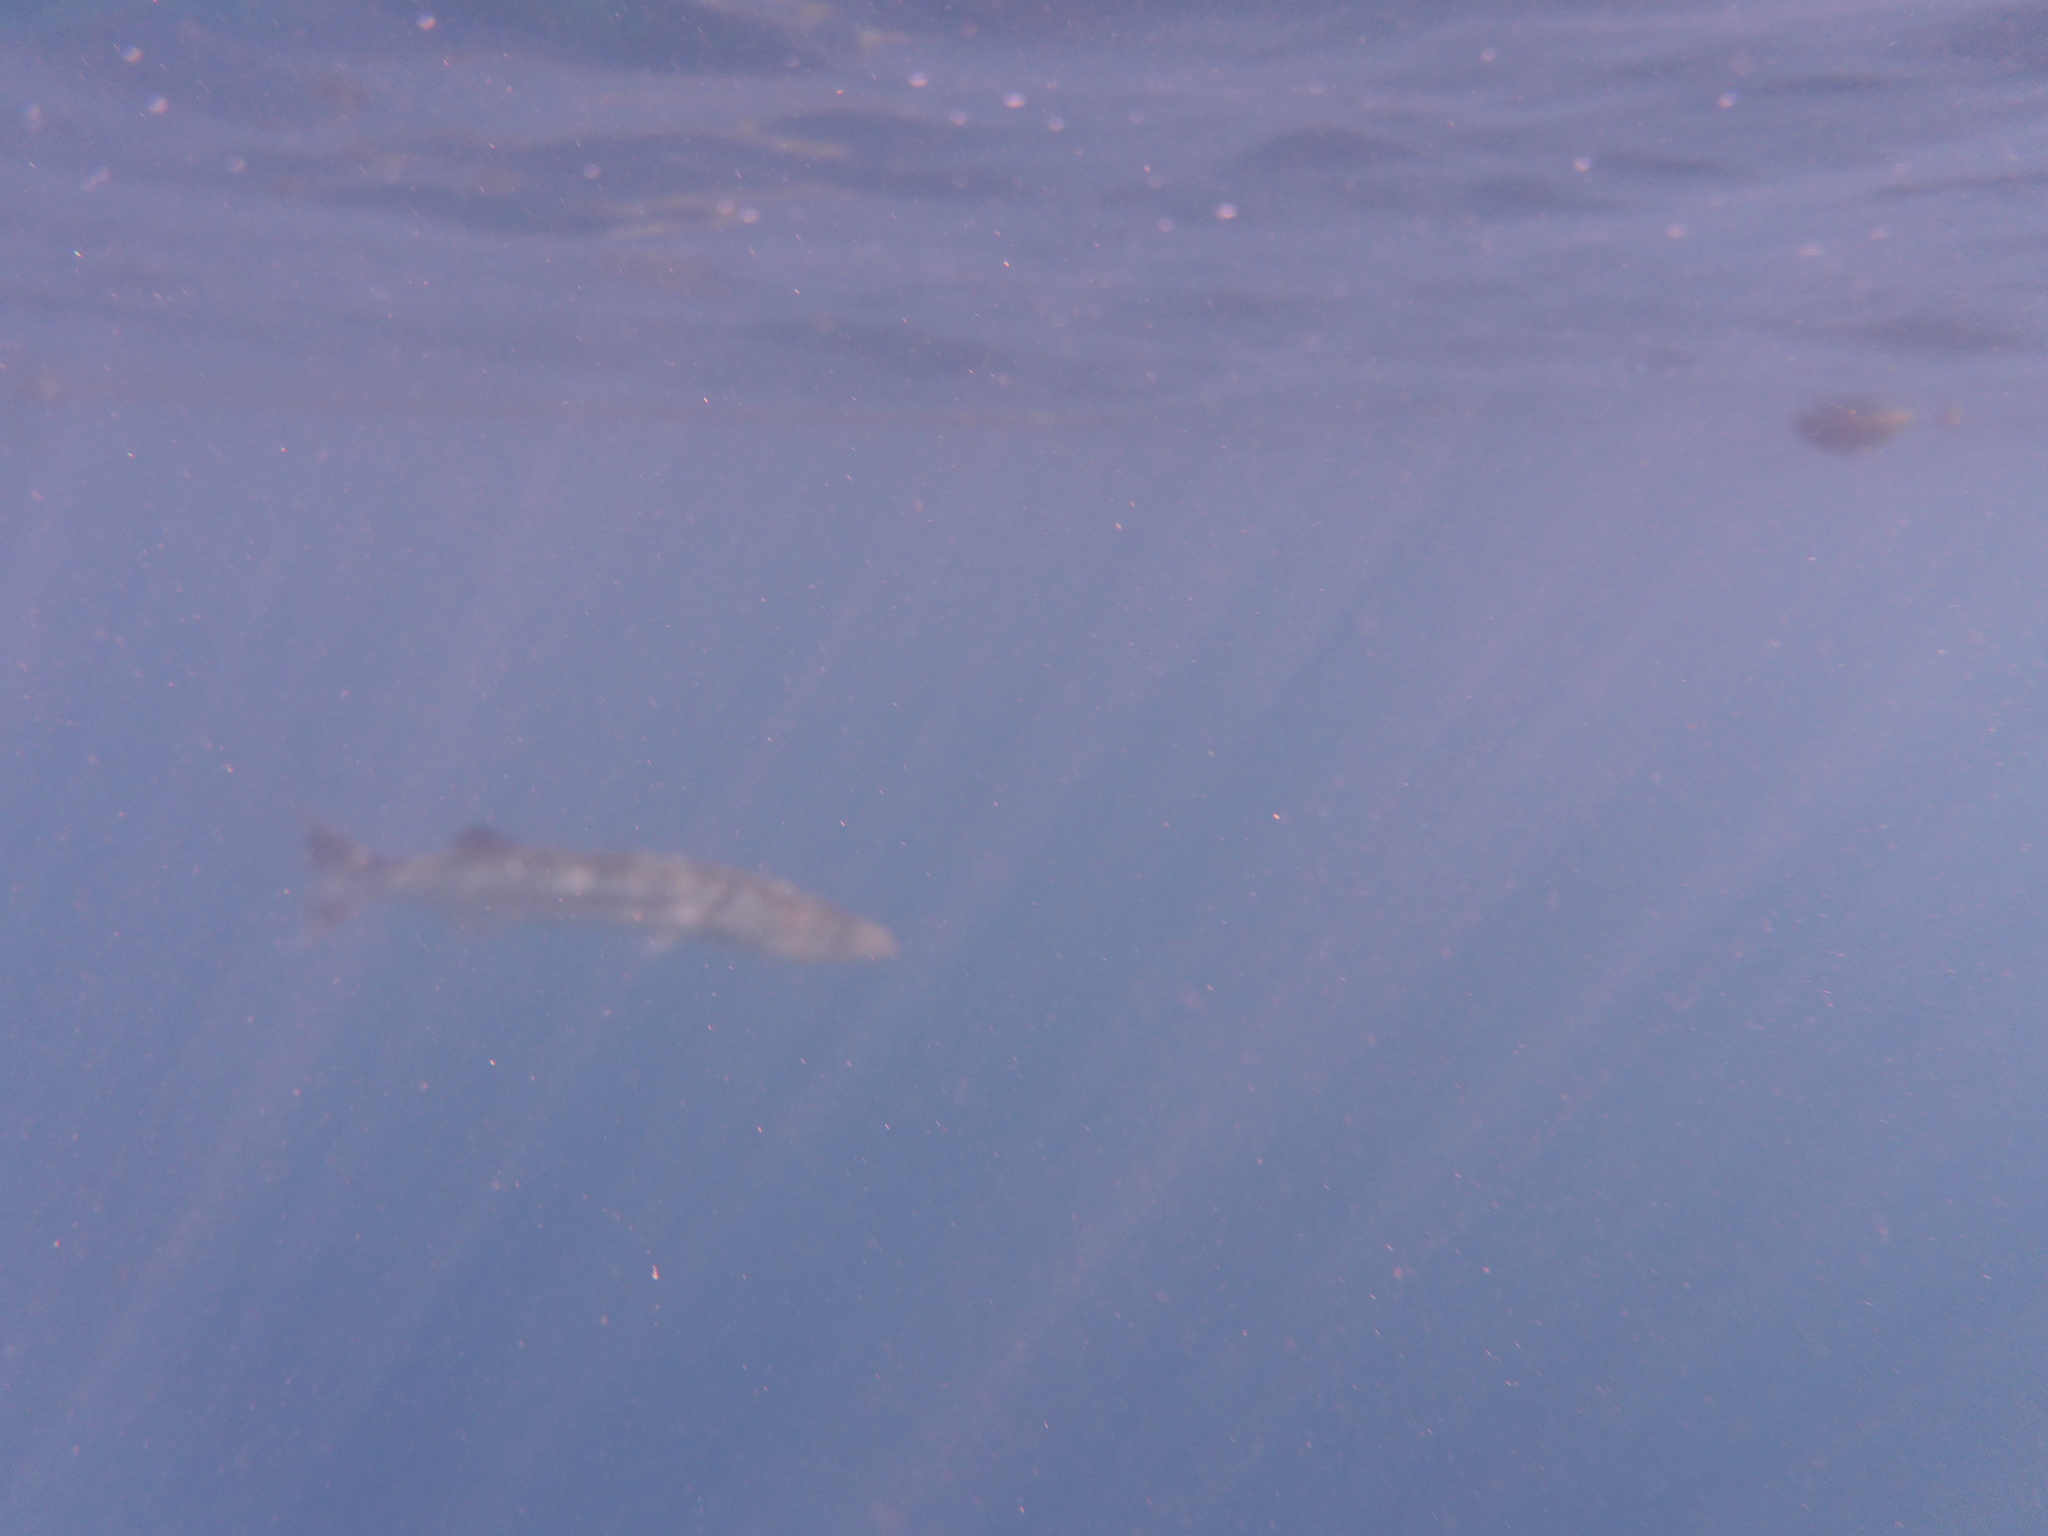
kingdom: Animalia
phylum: Chordata
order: Perciformes
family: Sphyraenidae
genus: Sphyraena
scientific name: Sphyraena barracuda
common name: Great barracuda
